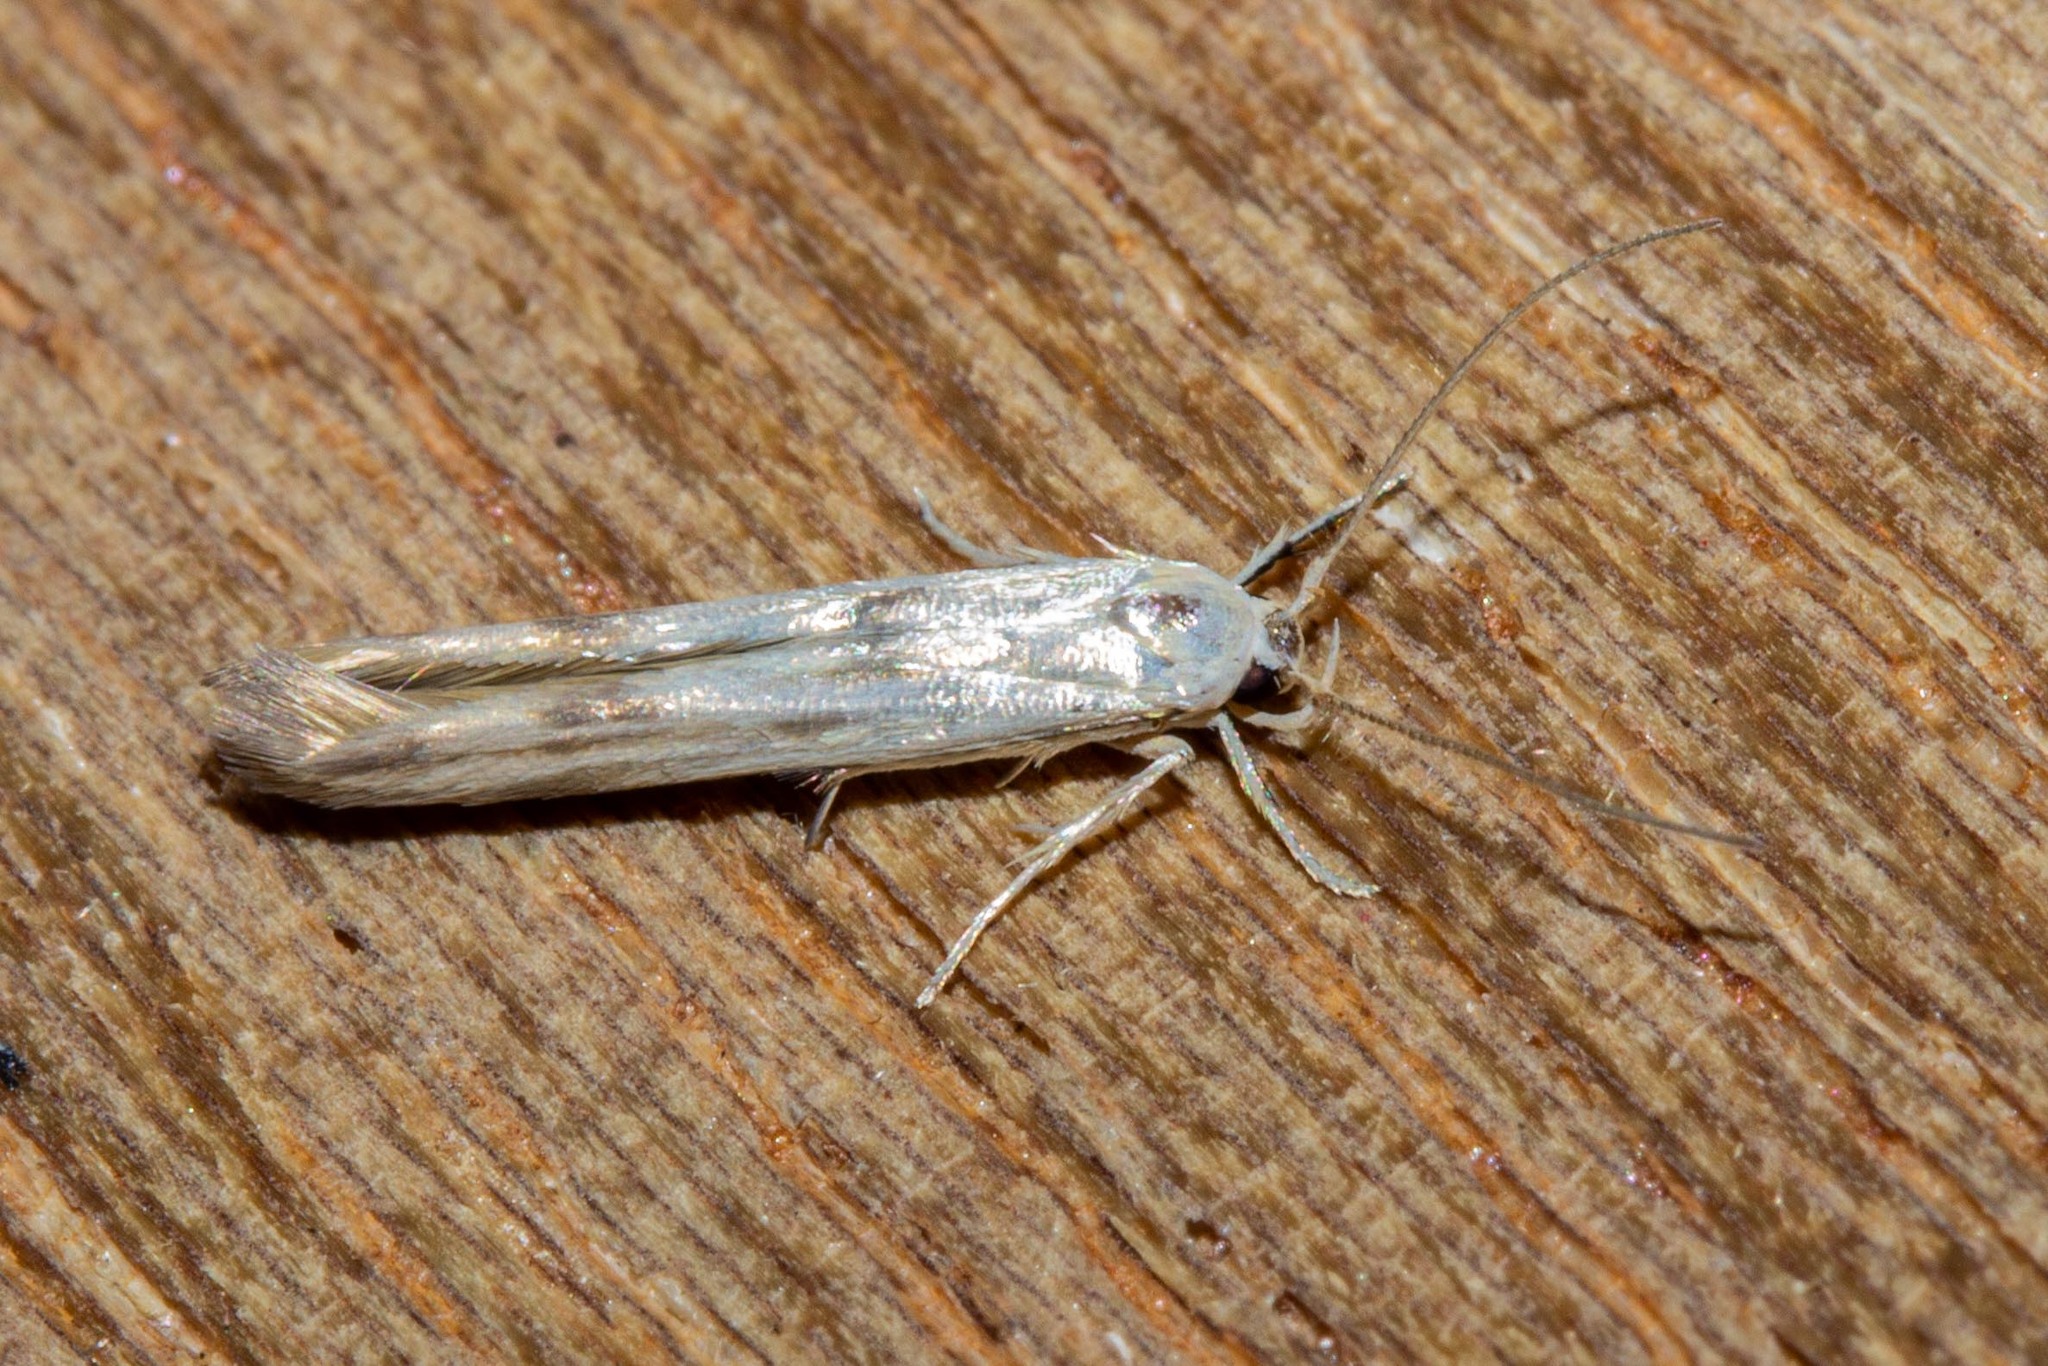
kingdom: Animalia
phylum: Arthropoda
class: Insecta
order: Lepidoptera
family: Stathmopodidae
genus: Stathmopoda
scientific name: Stathmopoda horticola
